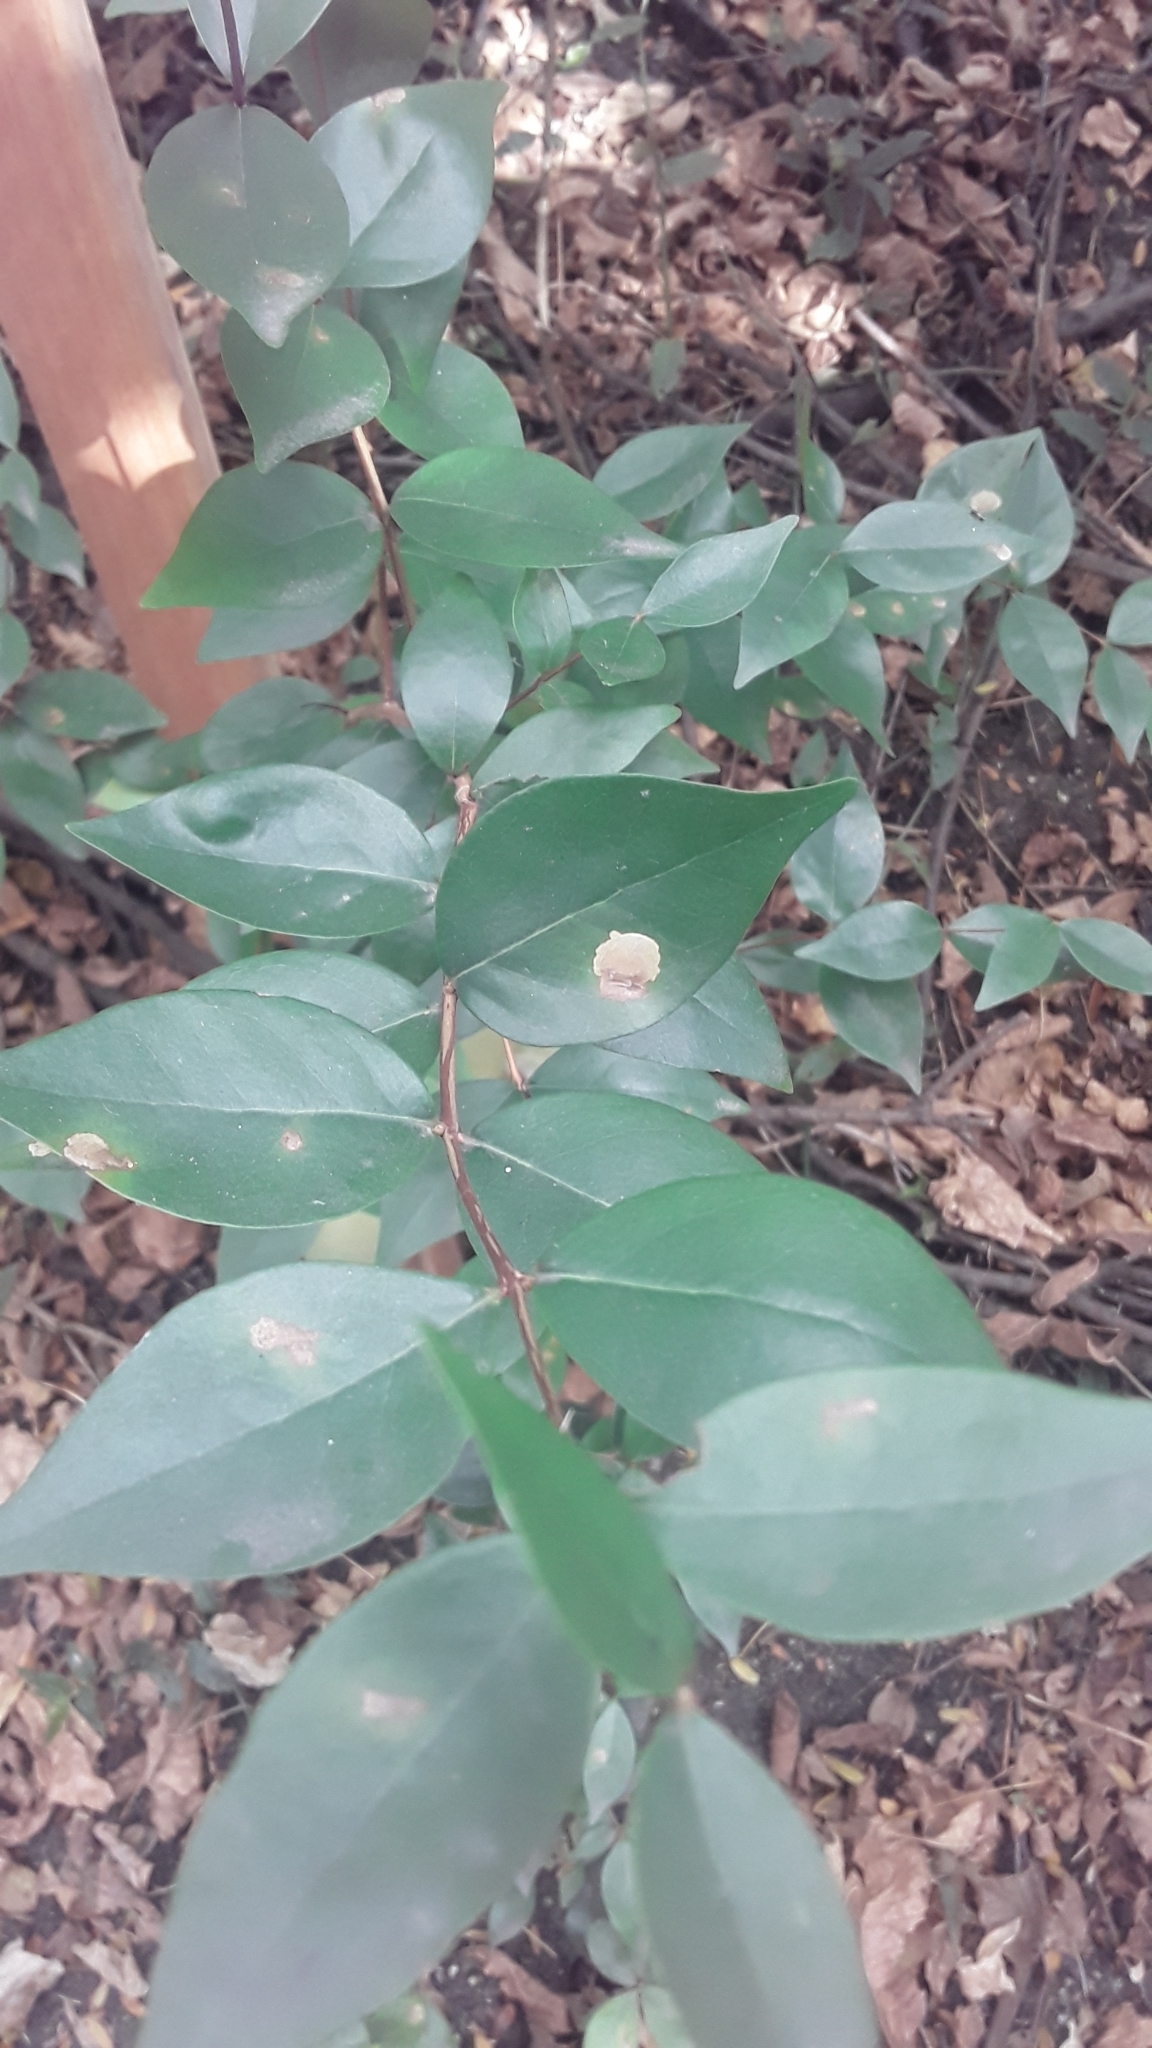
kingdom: Plantae
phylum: Tracheophyta
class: Magnoliopsida
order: Myrtales
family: Myrtaceae
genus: Eugenia
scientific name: Eugenia uniflora
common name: Surinam cherry
